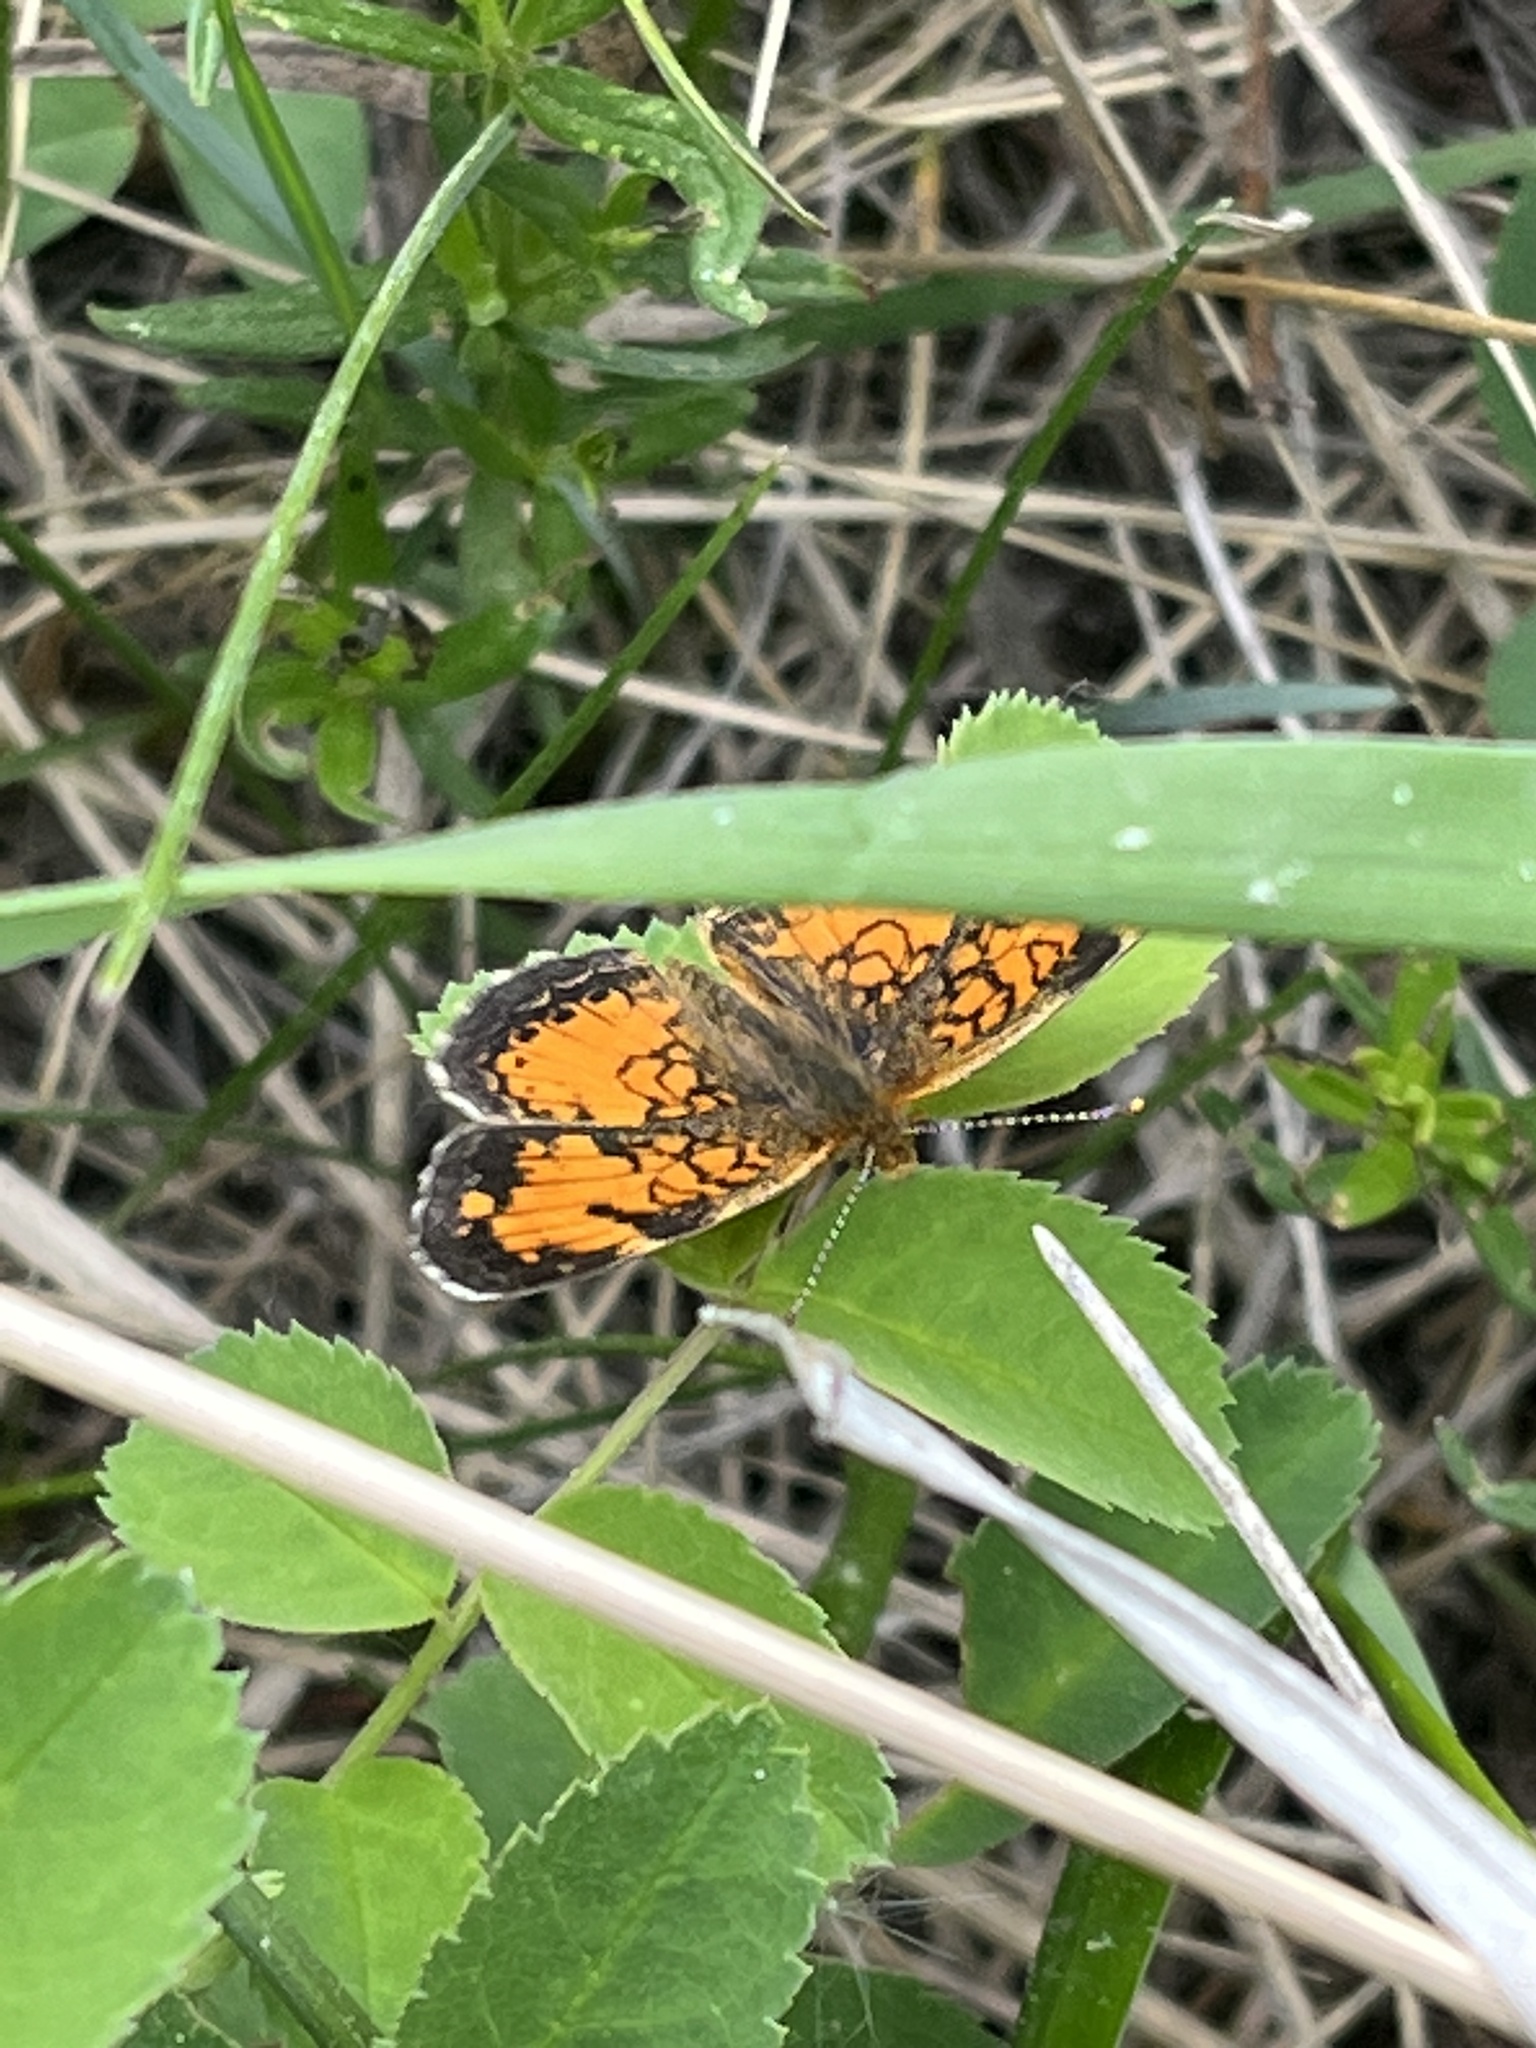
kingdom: Animalia
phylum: Arthropoda
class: Insecta
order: Lepidoptera
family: Nymphalidae
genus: Phyciodes
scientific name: Phyciodes tharos
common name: Pearl crescent
